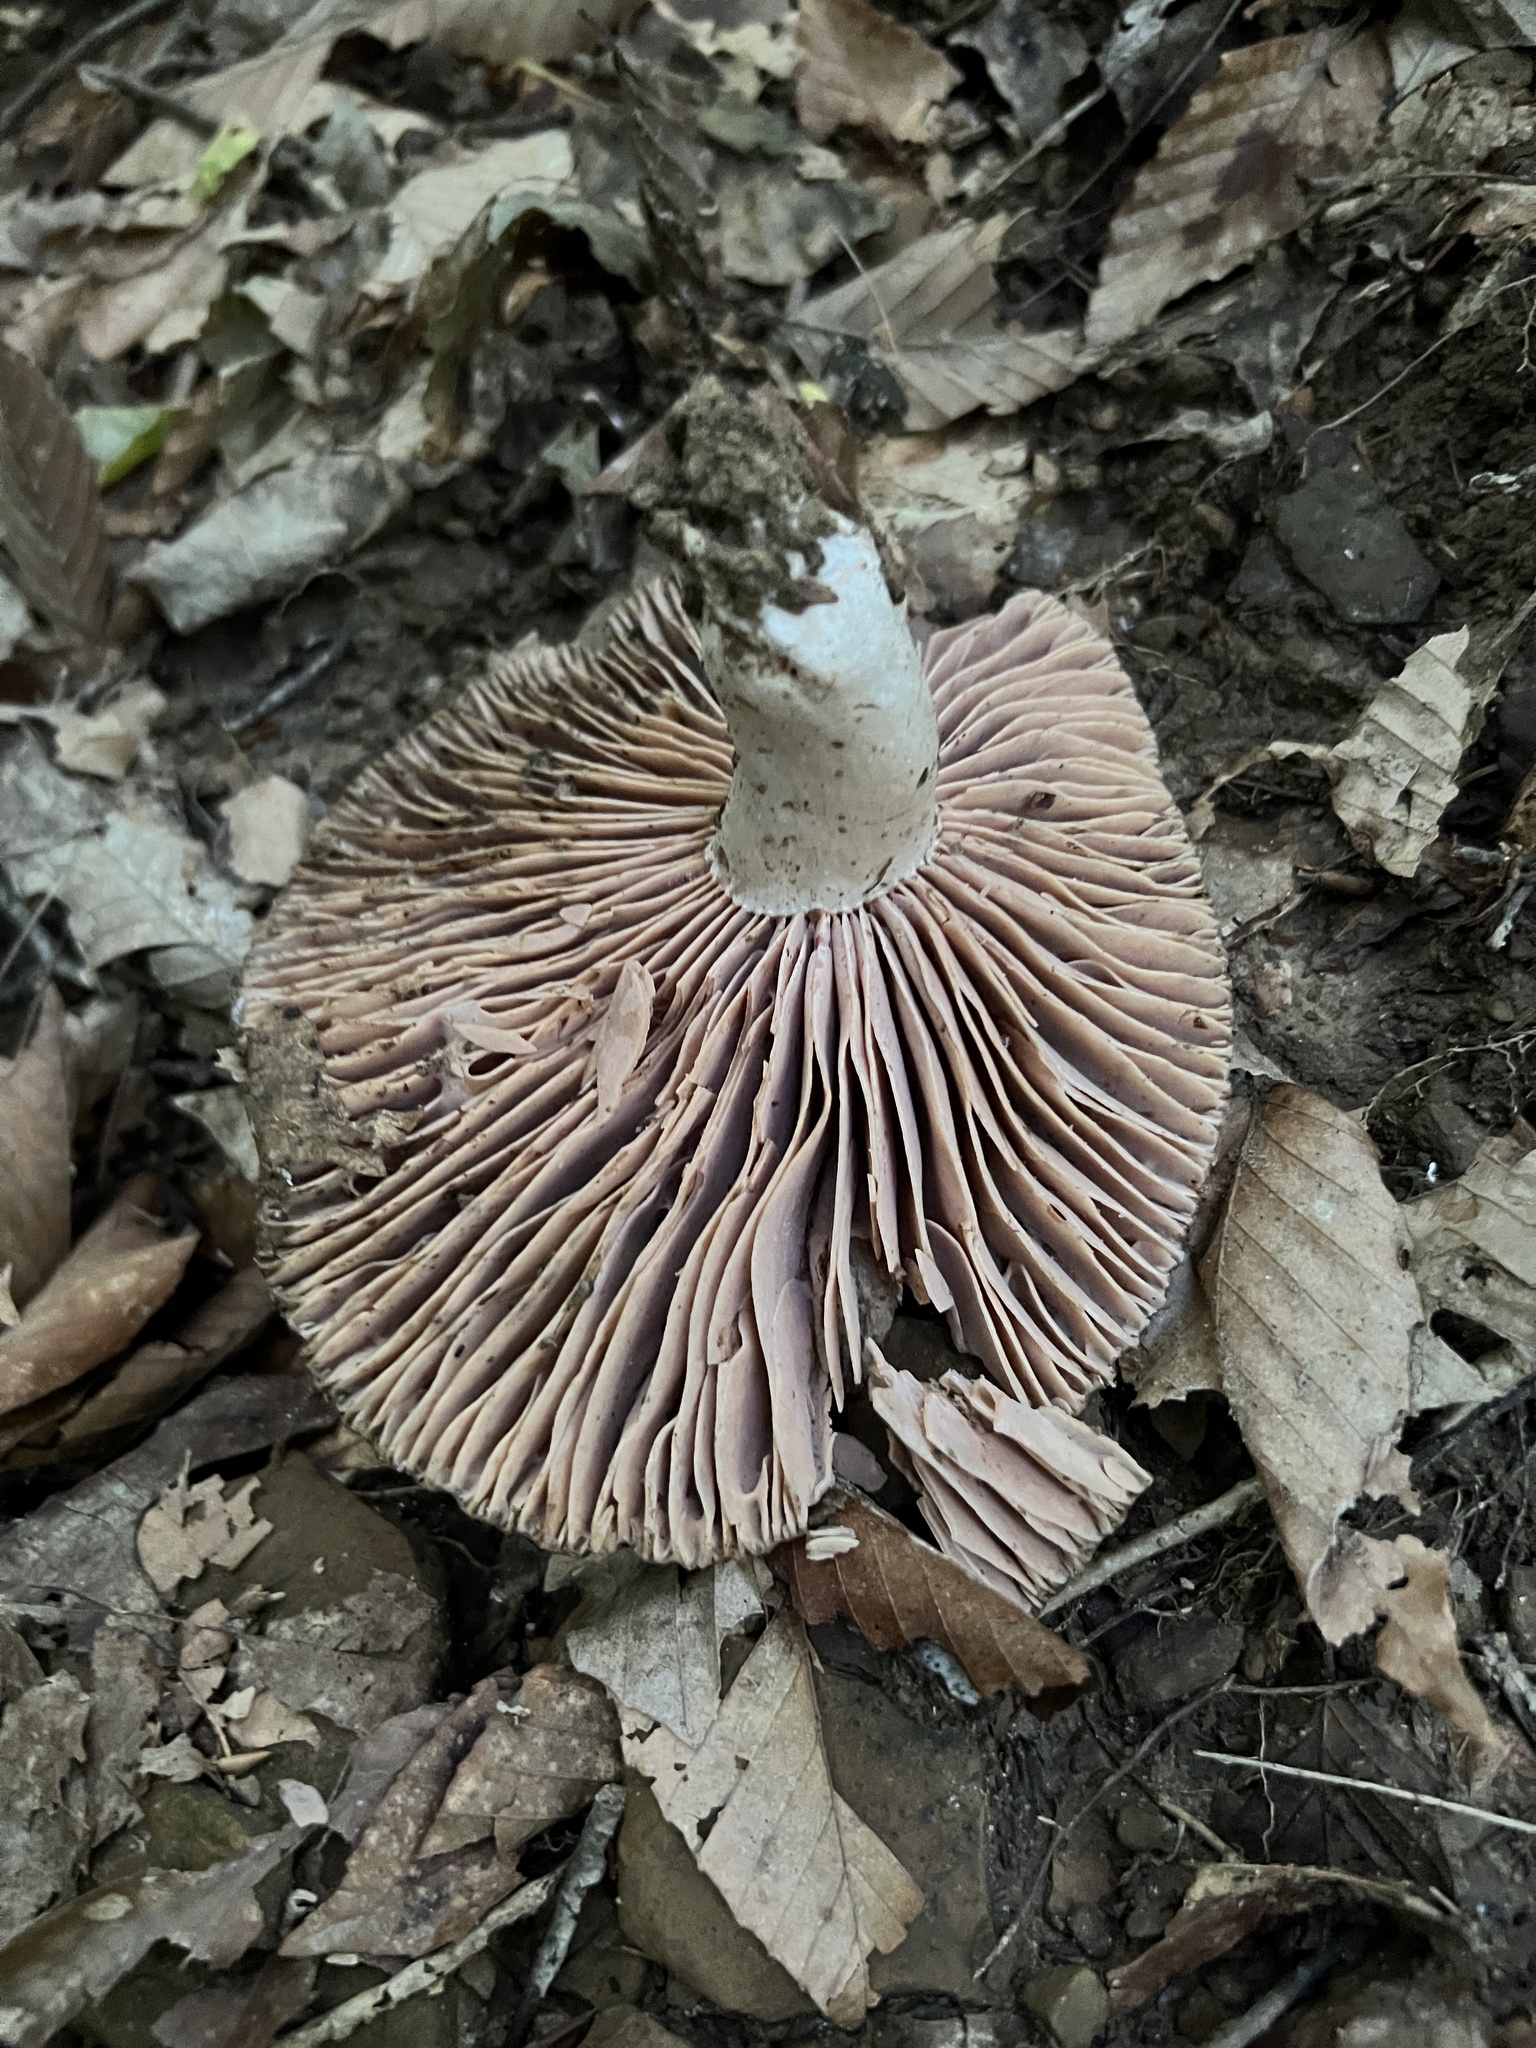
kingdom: Fungi
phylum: Basidiomycota
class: Agaricomycetes
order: Russulales
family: Russulaceae
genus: Russula
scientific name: Russula adusta
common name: Winecork brittlegill
